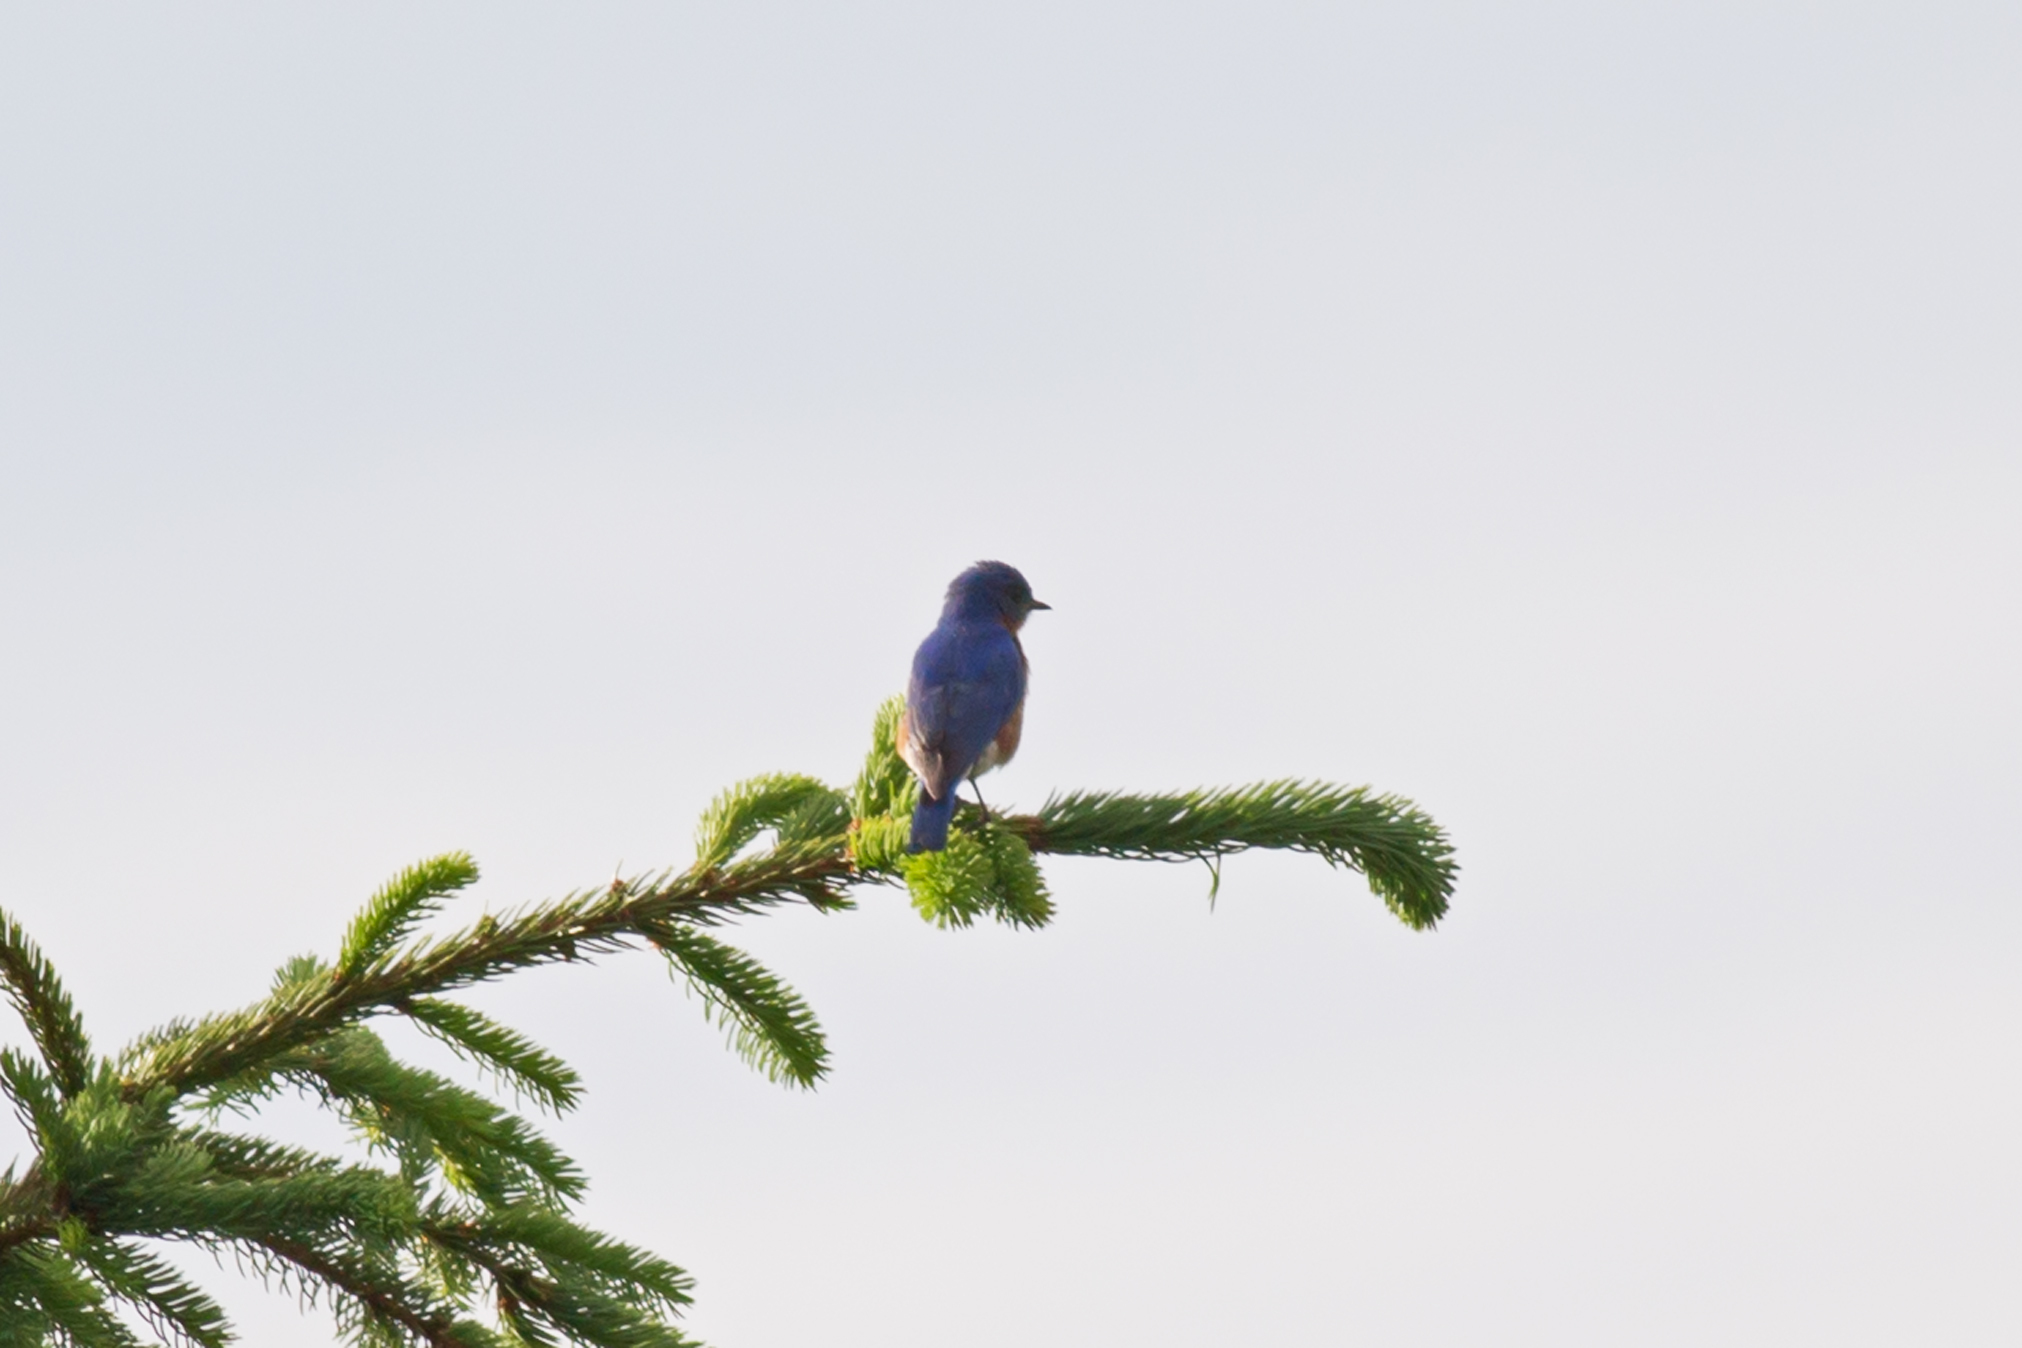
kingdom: Animalia
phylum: Chordata
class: Aves
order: Passeriformes
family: Turdidae
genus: Sialia
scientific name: Sialia sialis
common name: Eastern bluebird
